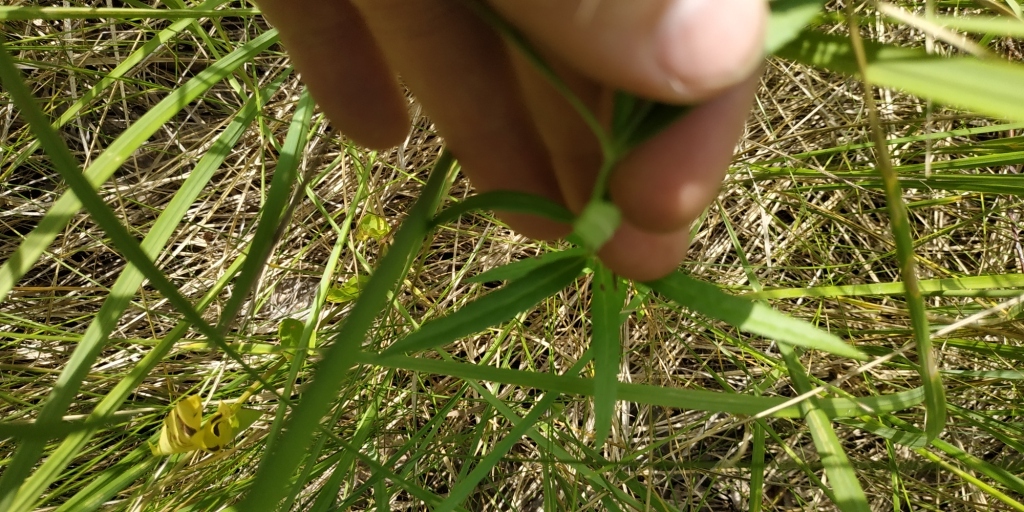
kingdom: Plantae
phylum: Tracheophyta
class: Magnoliopsida
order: Lamiales
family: Plantaginaceae
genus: Veronica
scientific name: Veronica spuria
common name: Bastard speedwell
